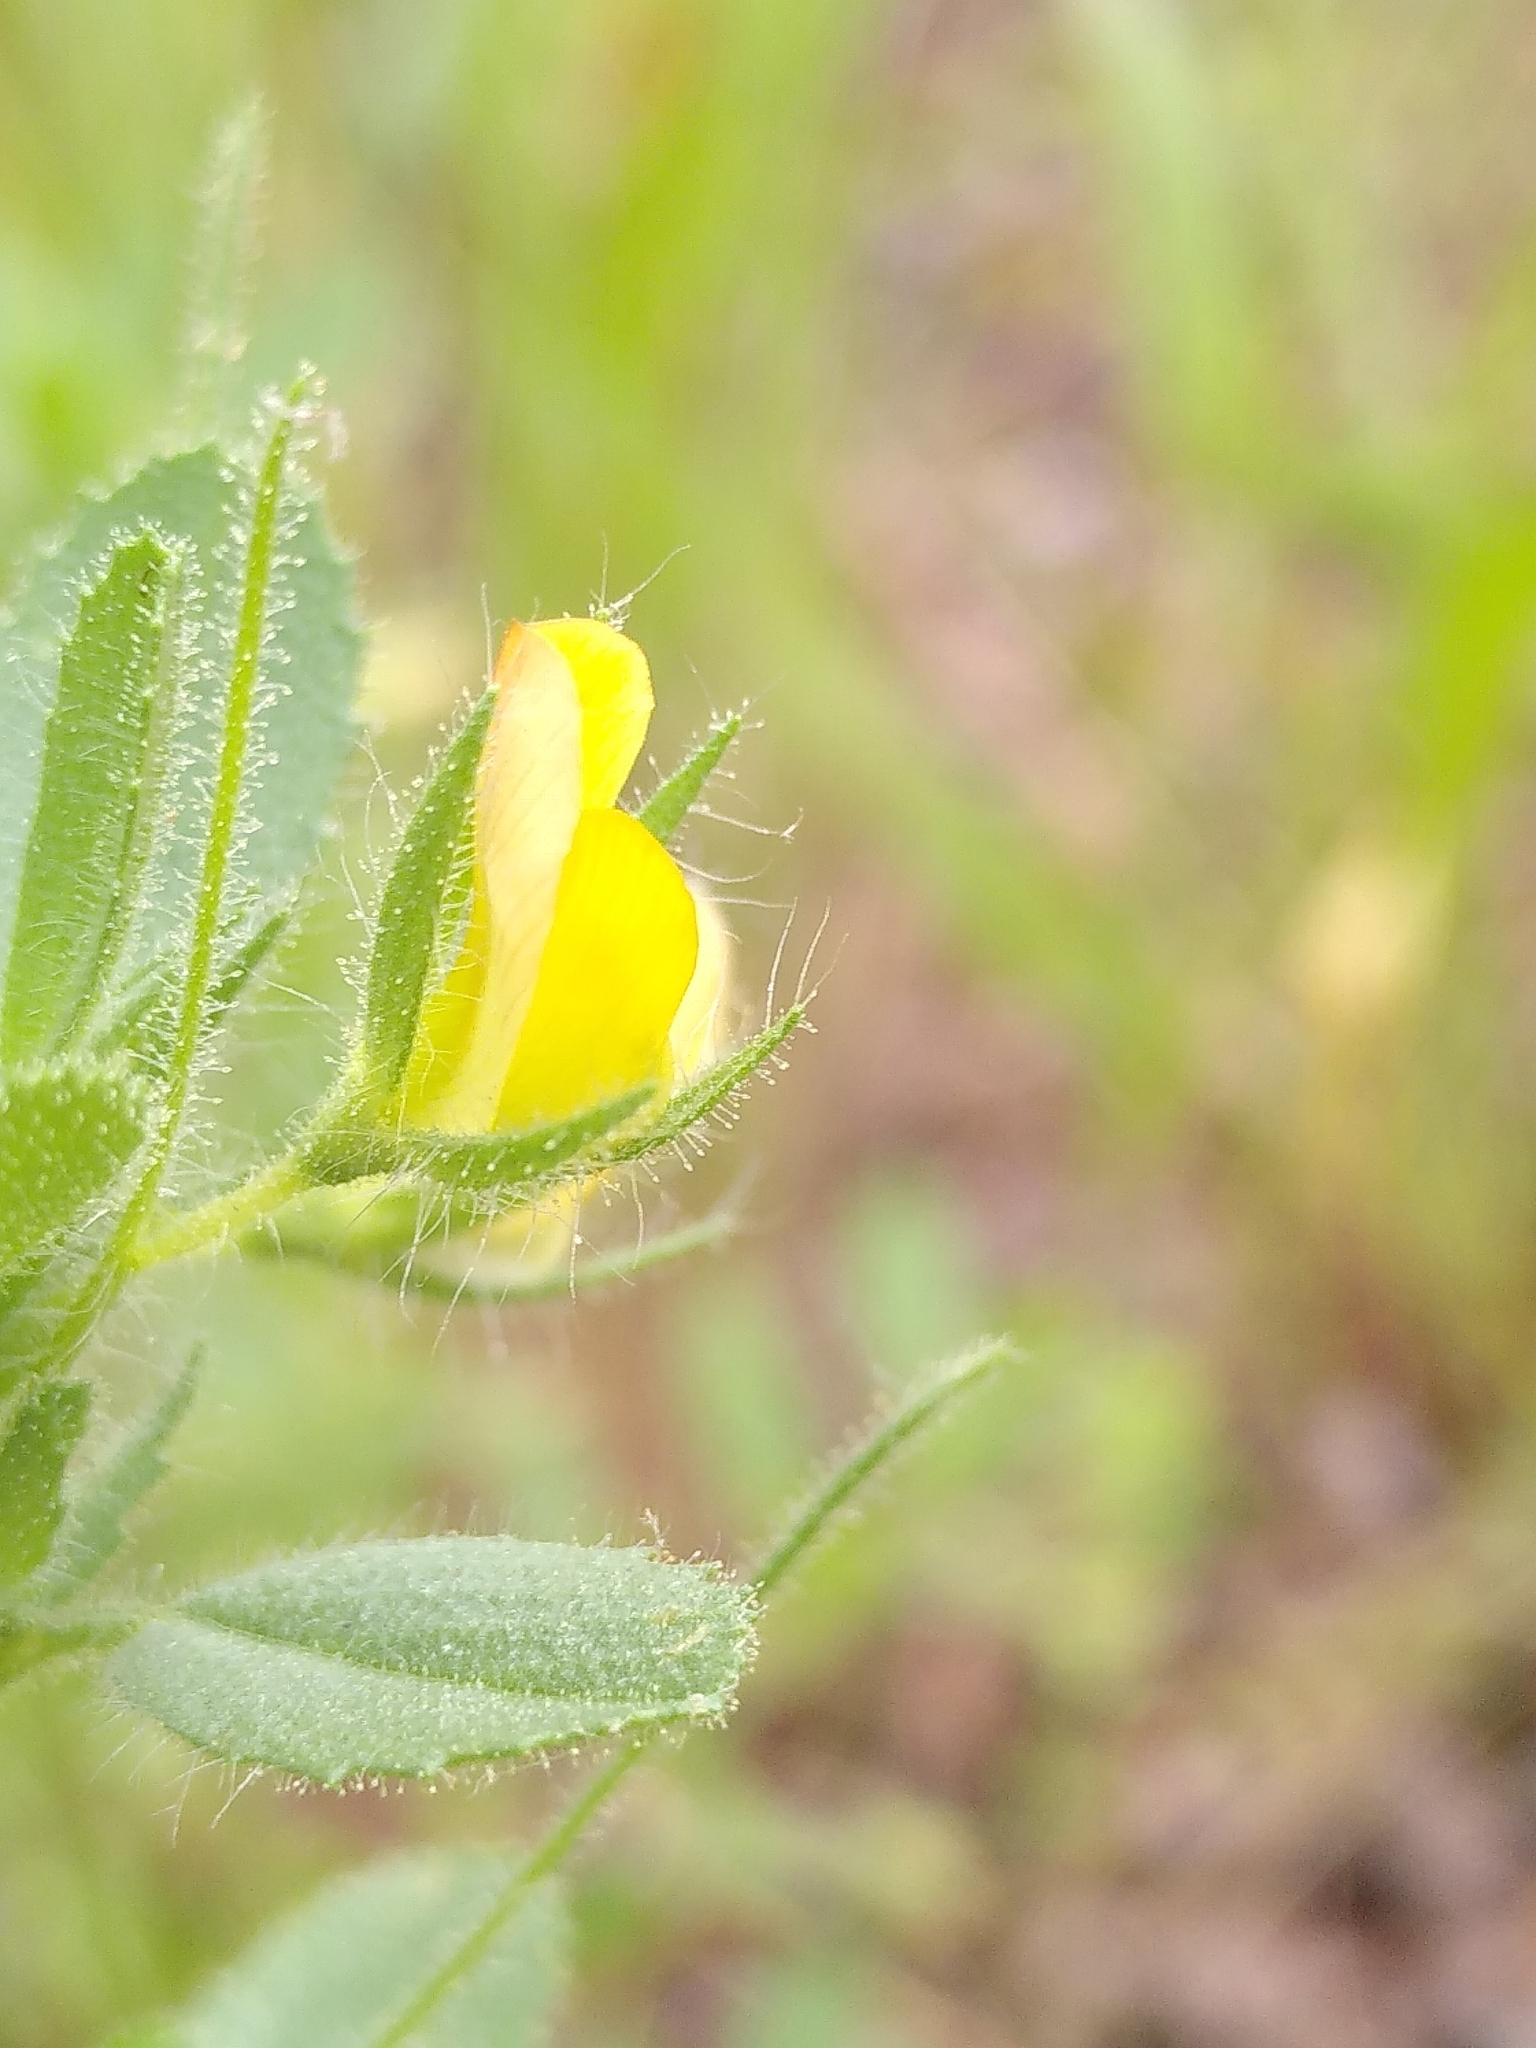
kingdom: Plantae
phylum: Tracheophyta
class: Magnoliopsida
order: Fabales
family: Fabaceae
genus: Ononis
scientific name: Ononis viscosa
